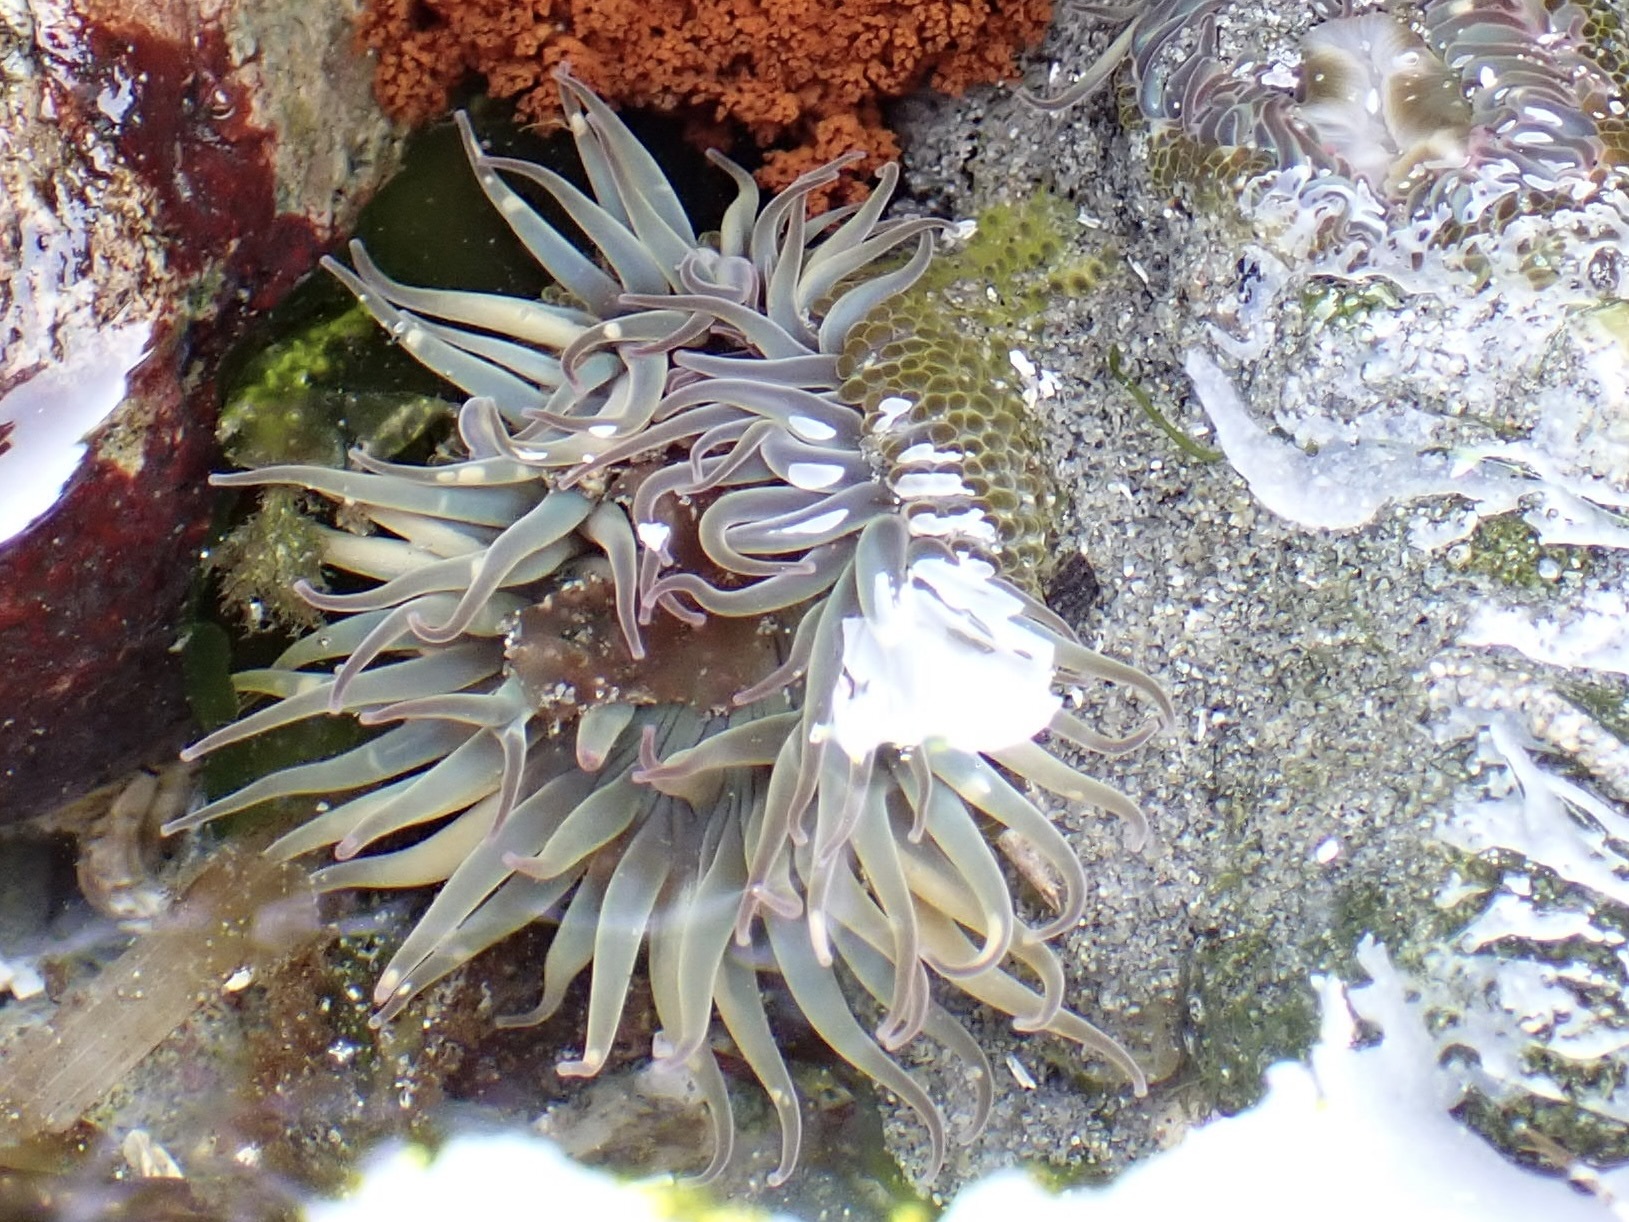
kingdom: Animalia
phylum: Cnidaria
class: Anthozoa
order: Actiniaria
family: Actiniidae
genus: Anthopleura
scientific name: Anthopleura elegantissima
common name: Clonal anemone
